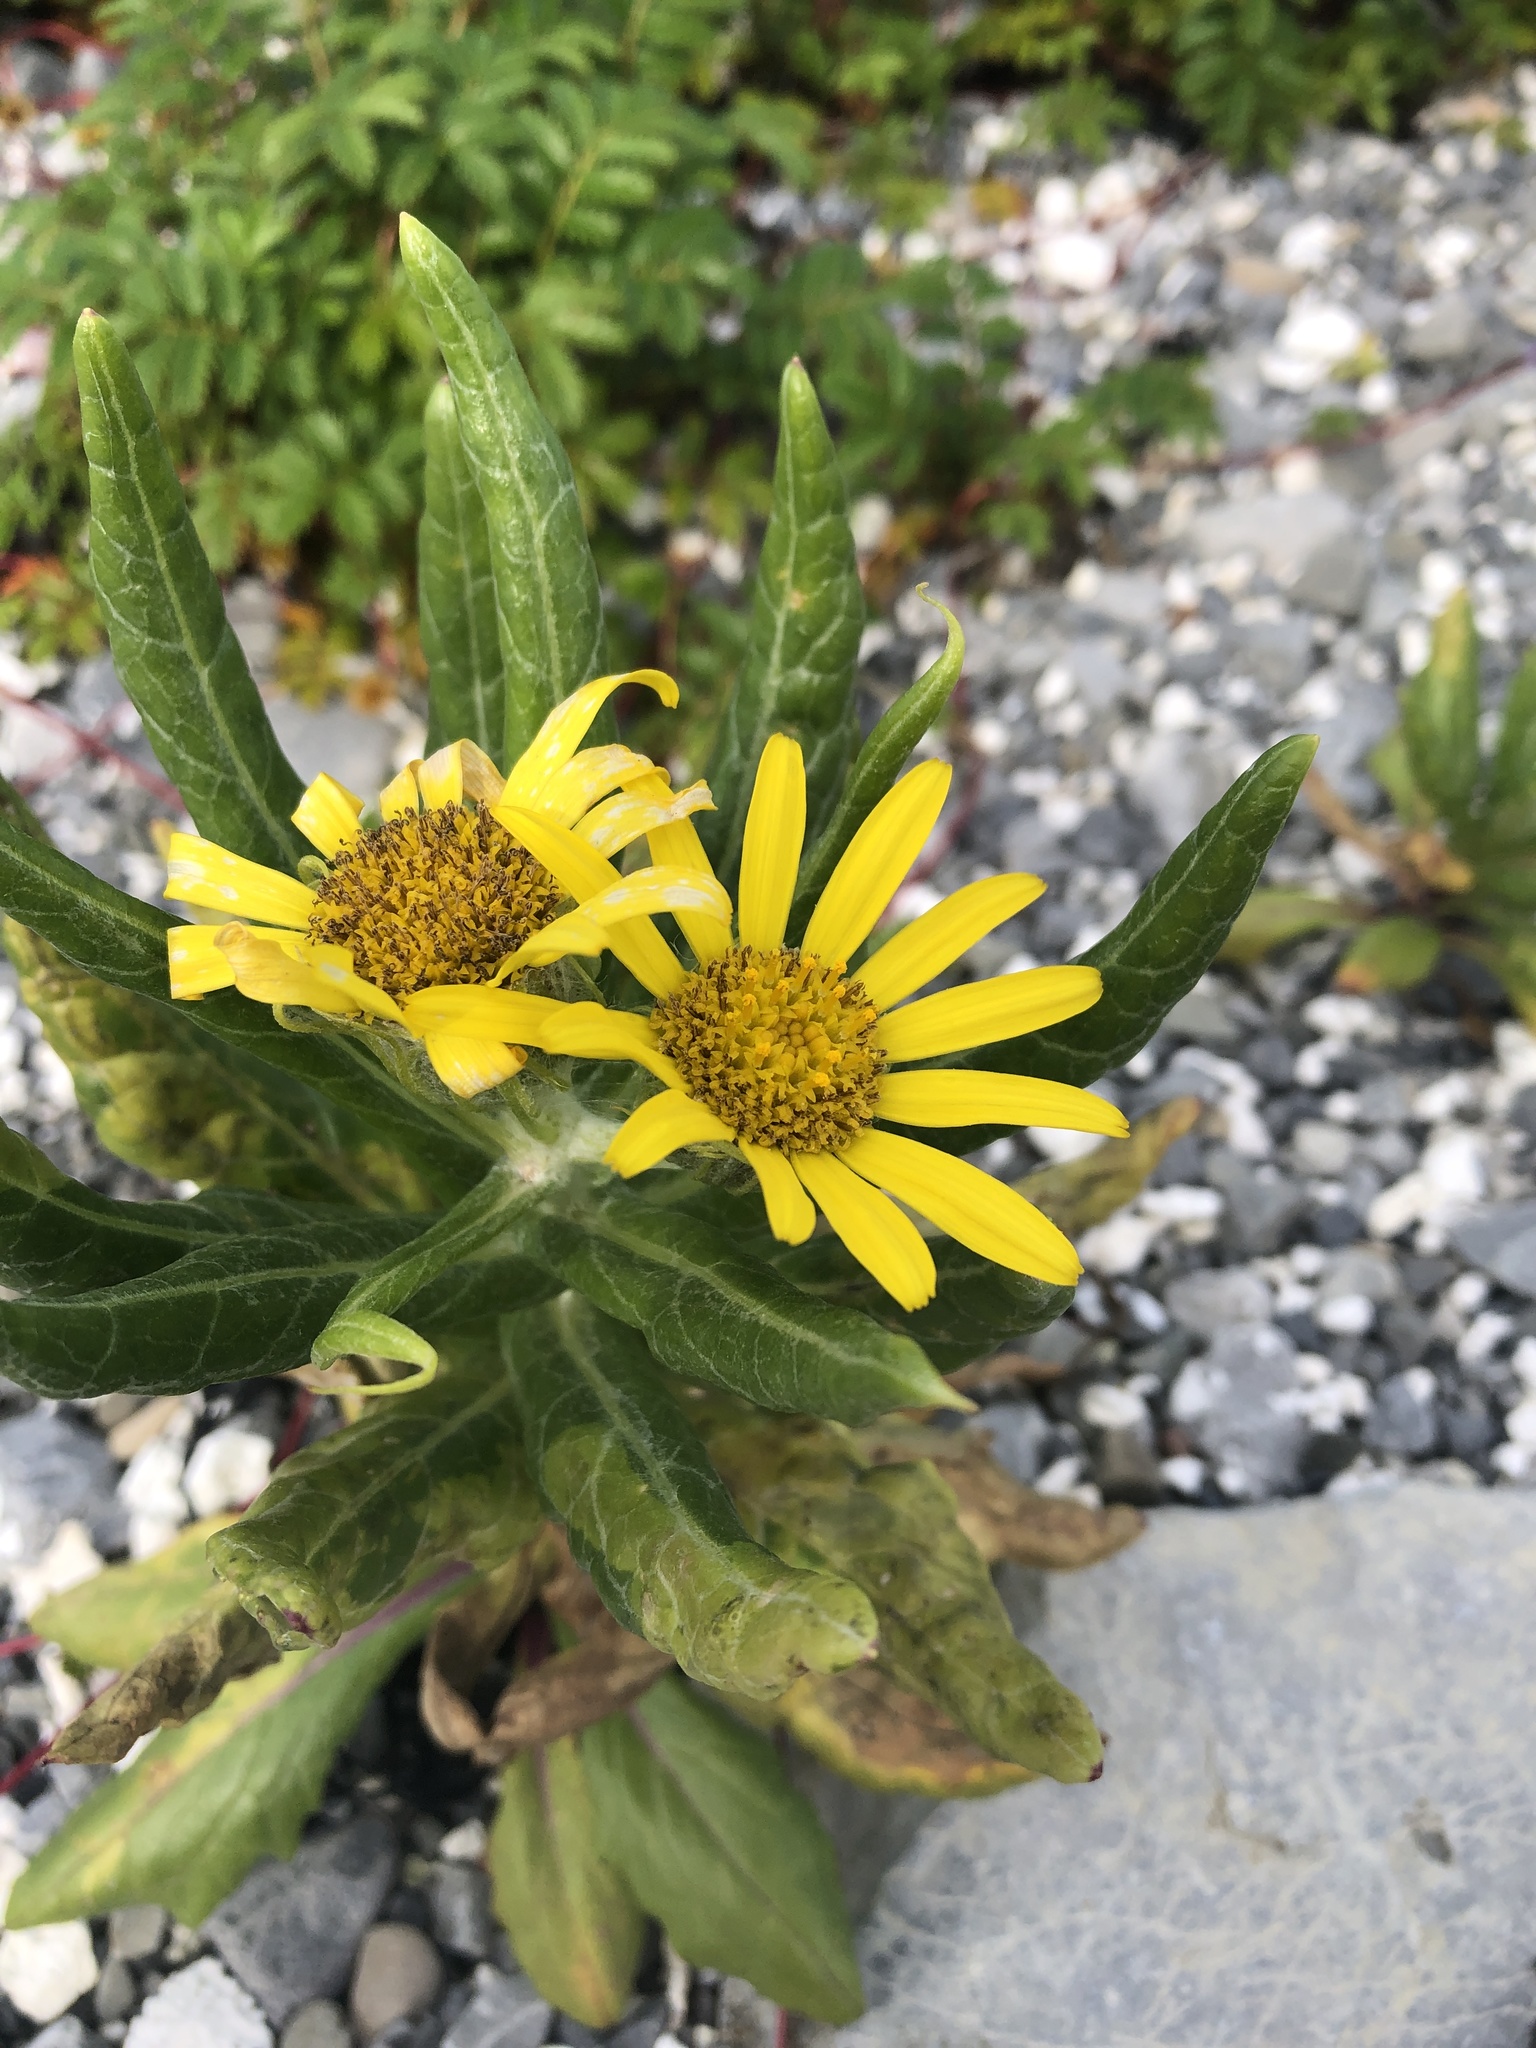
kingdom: Plantae
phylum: Tracheophyta
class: Magnoliopsida
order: Asterales
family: Asteraceae
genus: Jacobaea
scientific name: Jacobaea pseudoarnica
